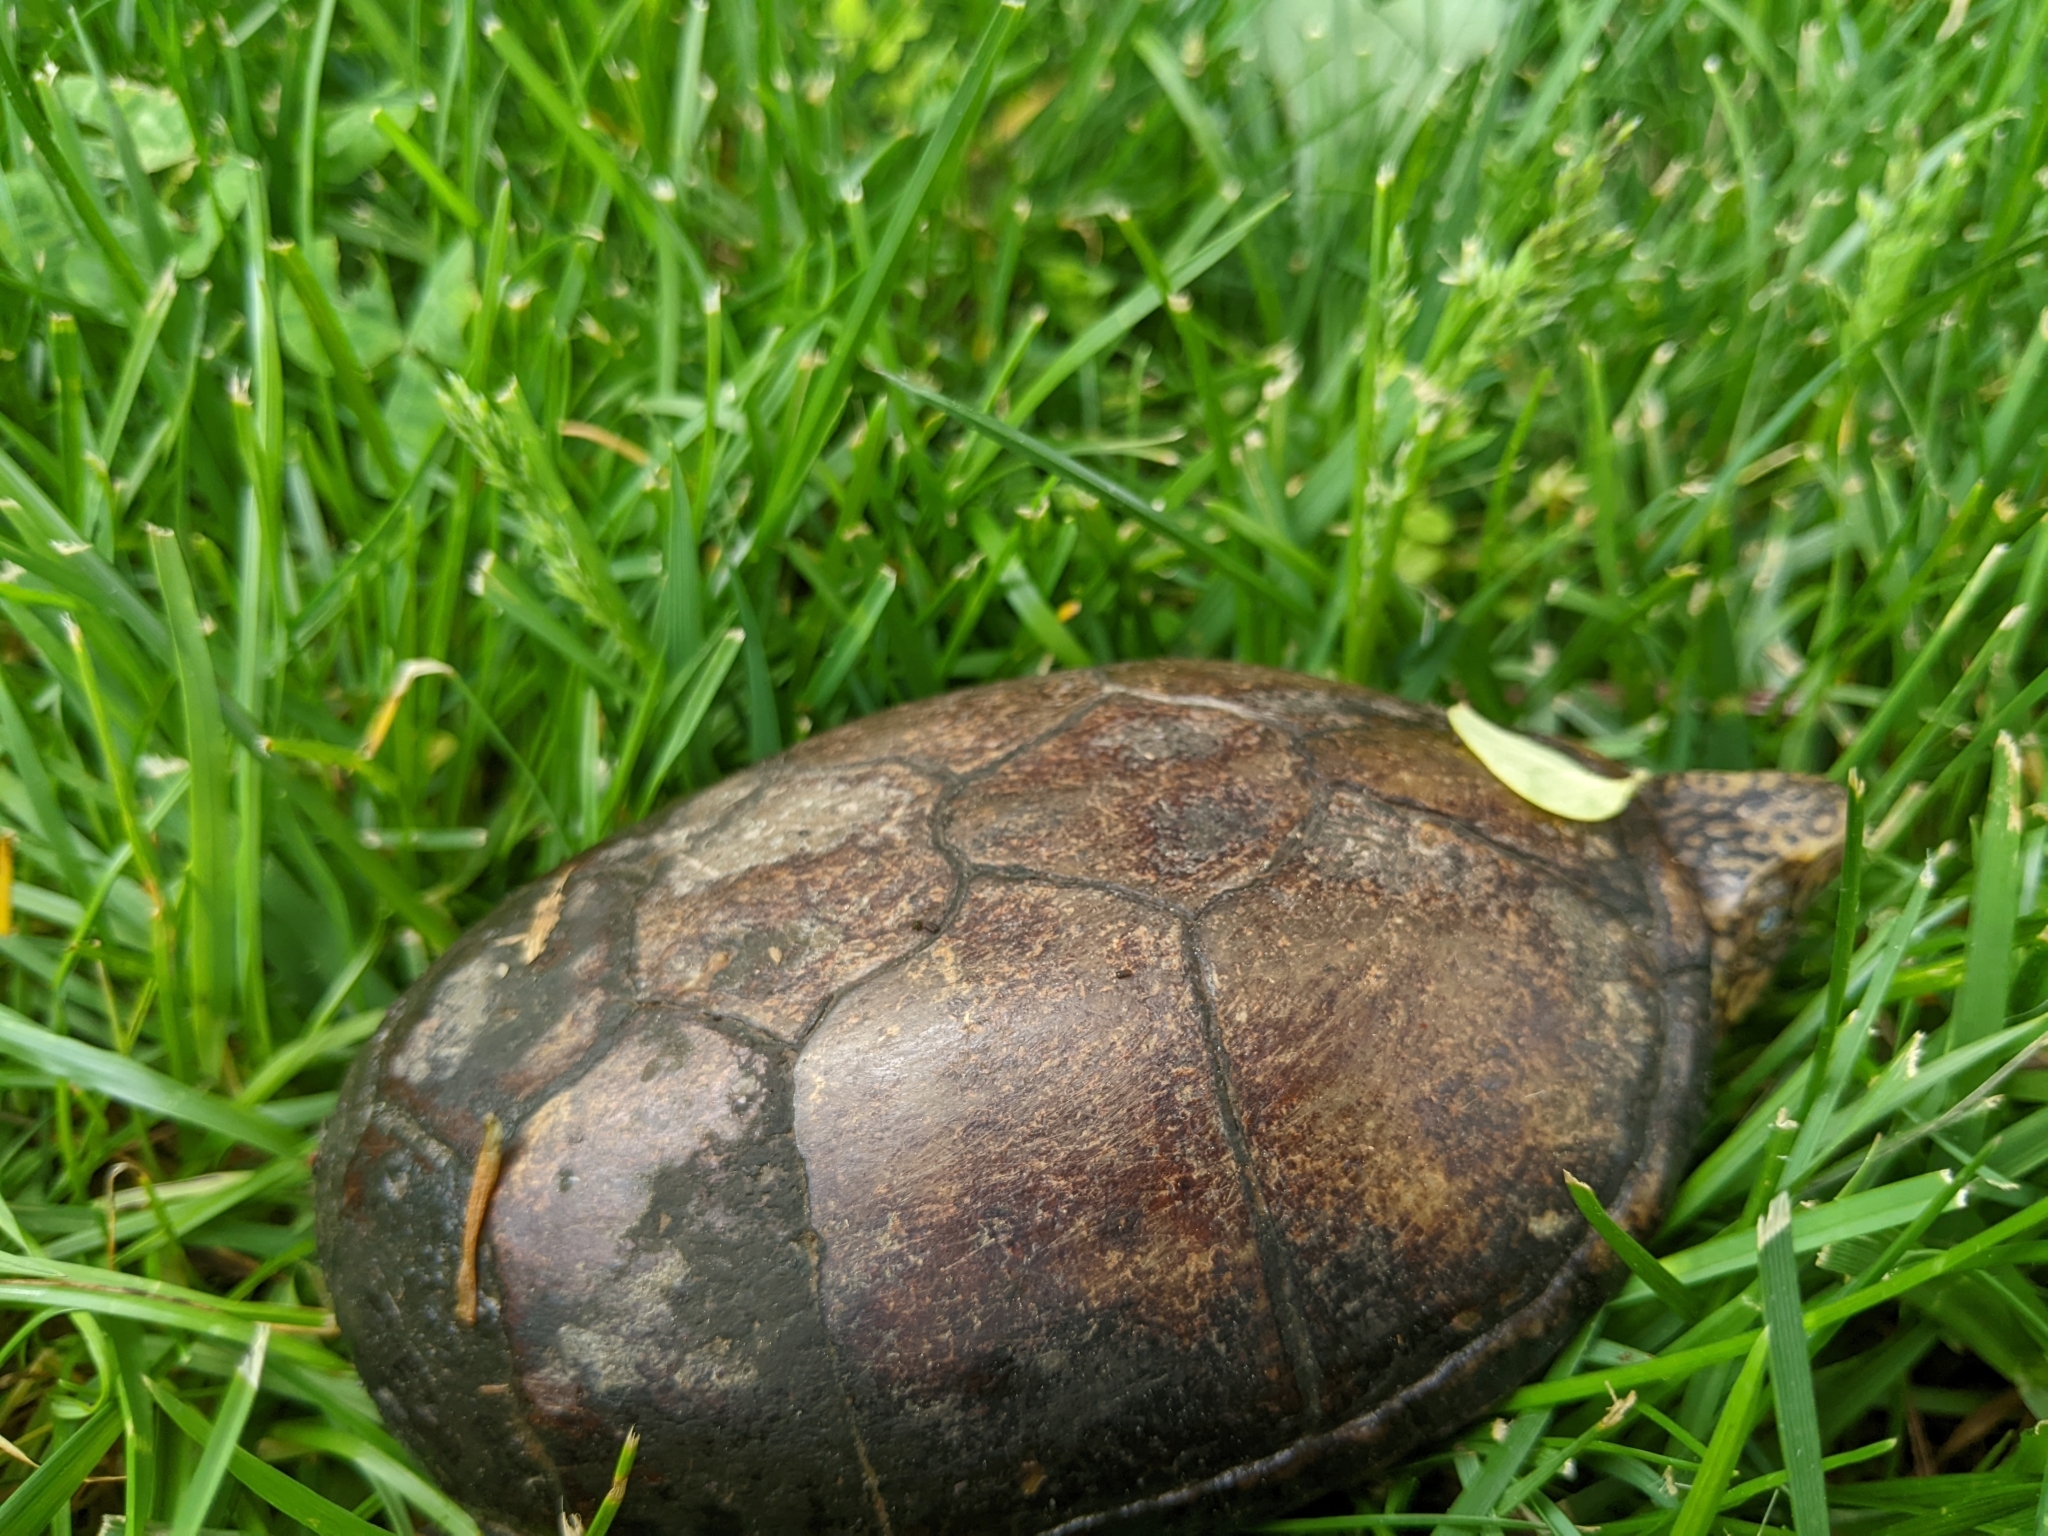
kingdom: Animalia
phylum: Chordata
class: Testudines
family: Kinosternidae
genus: Kinosternon
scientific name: Kinosternon subrubrum
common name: Eastern mud turtle
